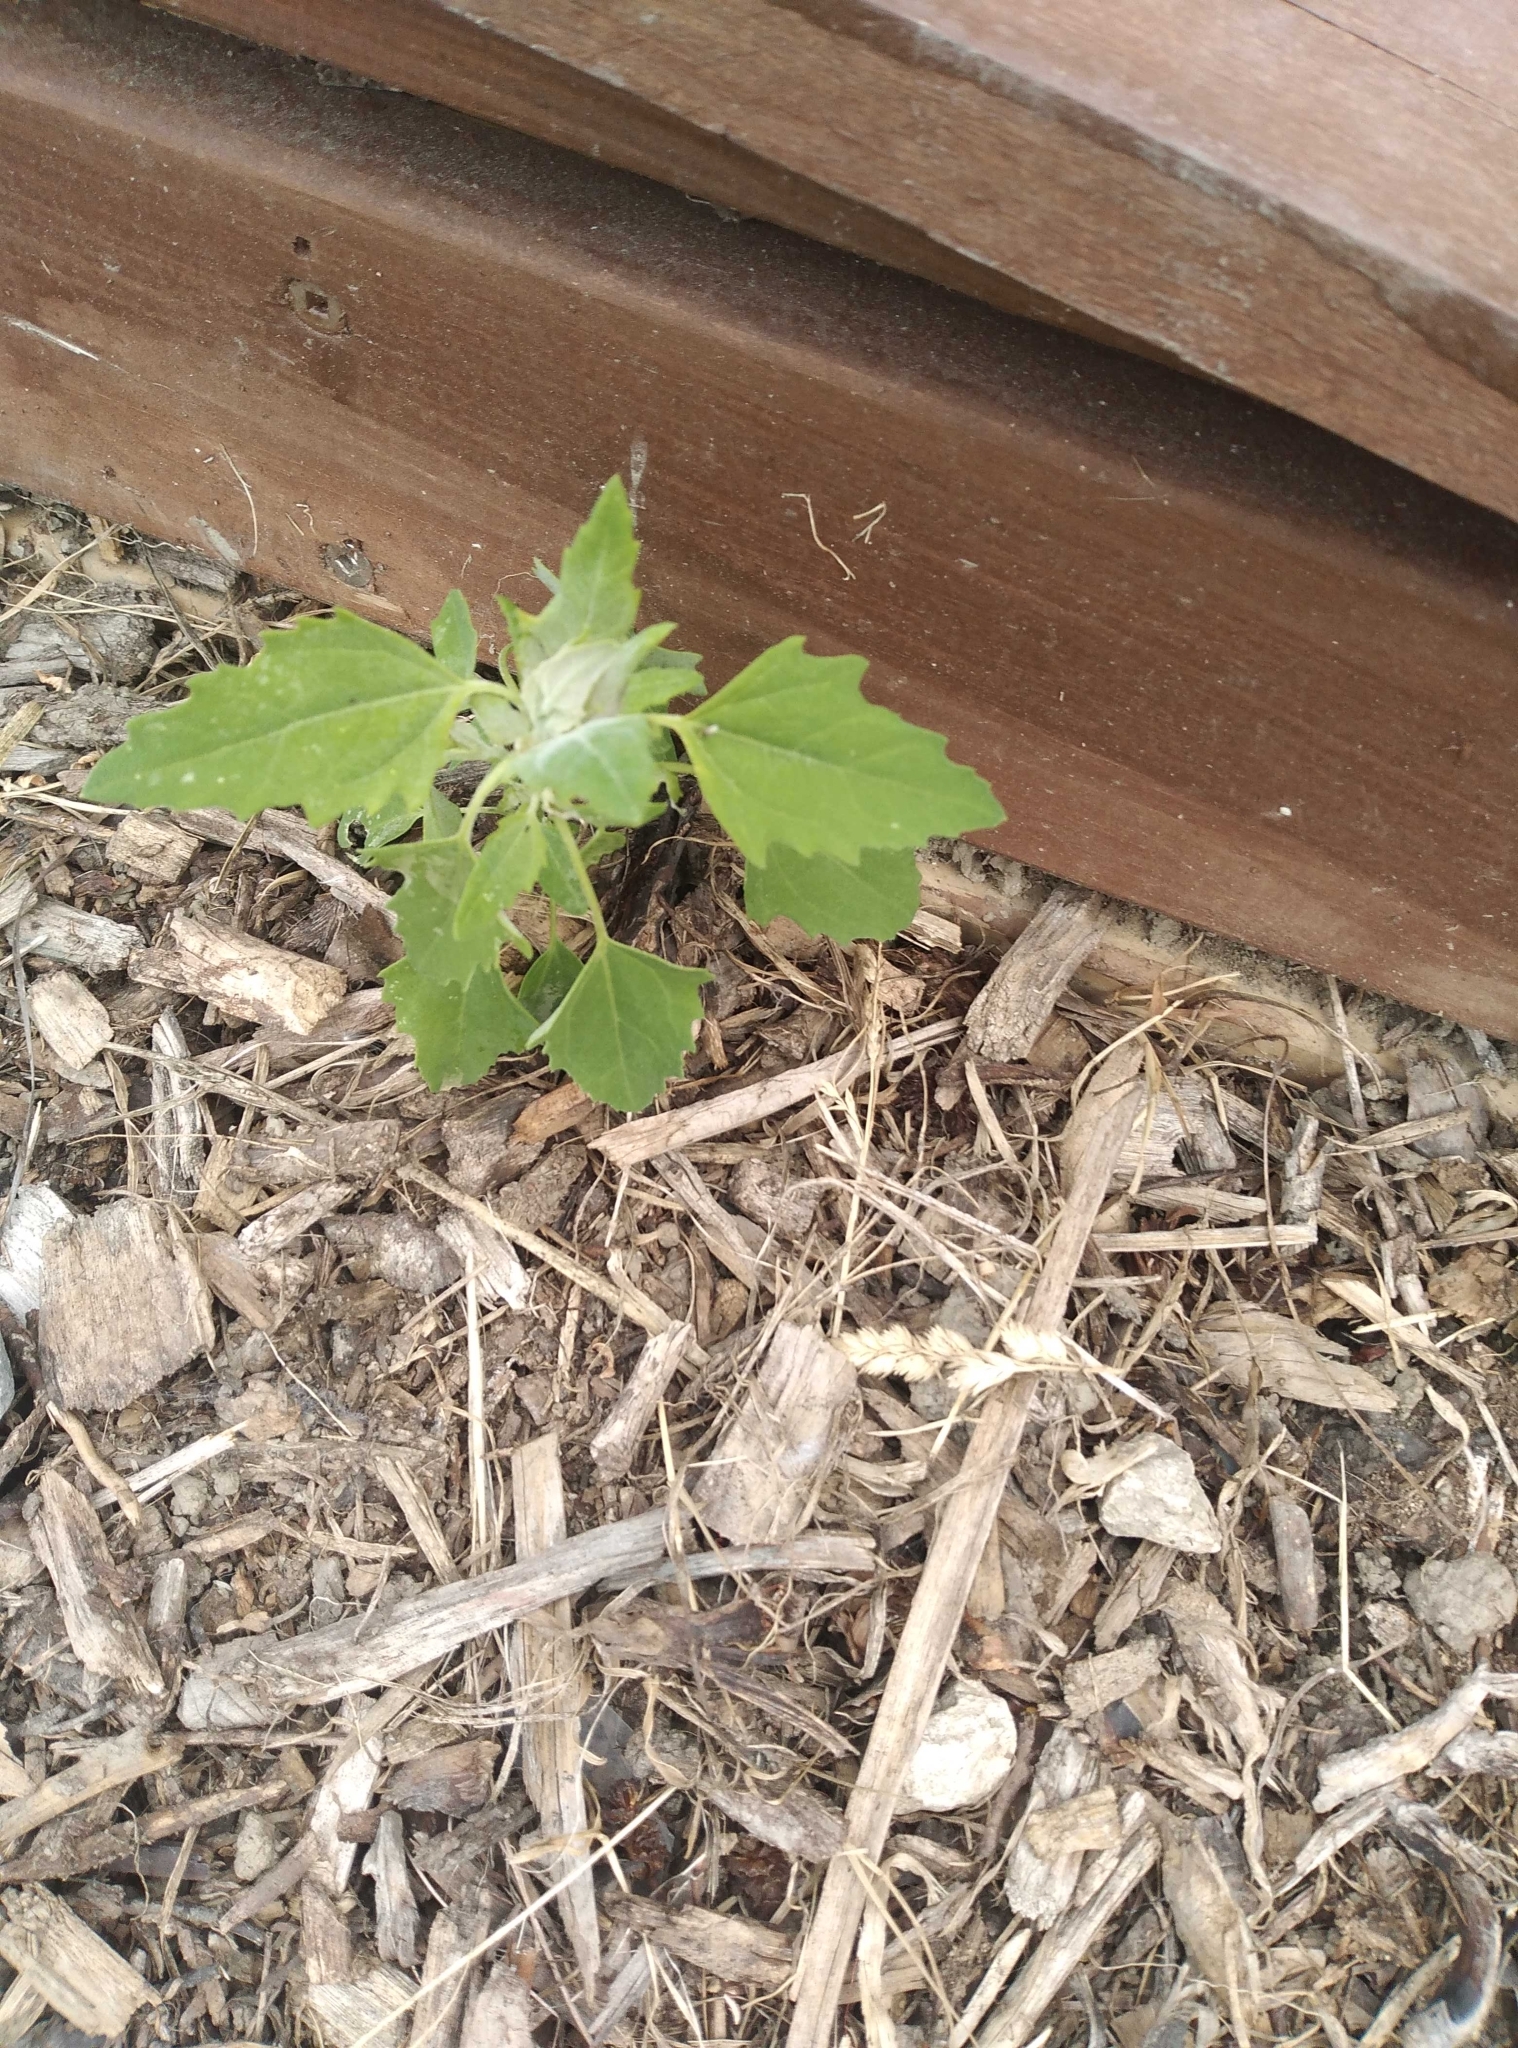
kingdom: Plantae
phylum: Tracheophyta
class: Magnoliopsida
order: Caryophyllales
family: Amaranthaceae
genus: Chenopodium
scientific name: Chenopodium album
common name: Fat-hen
